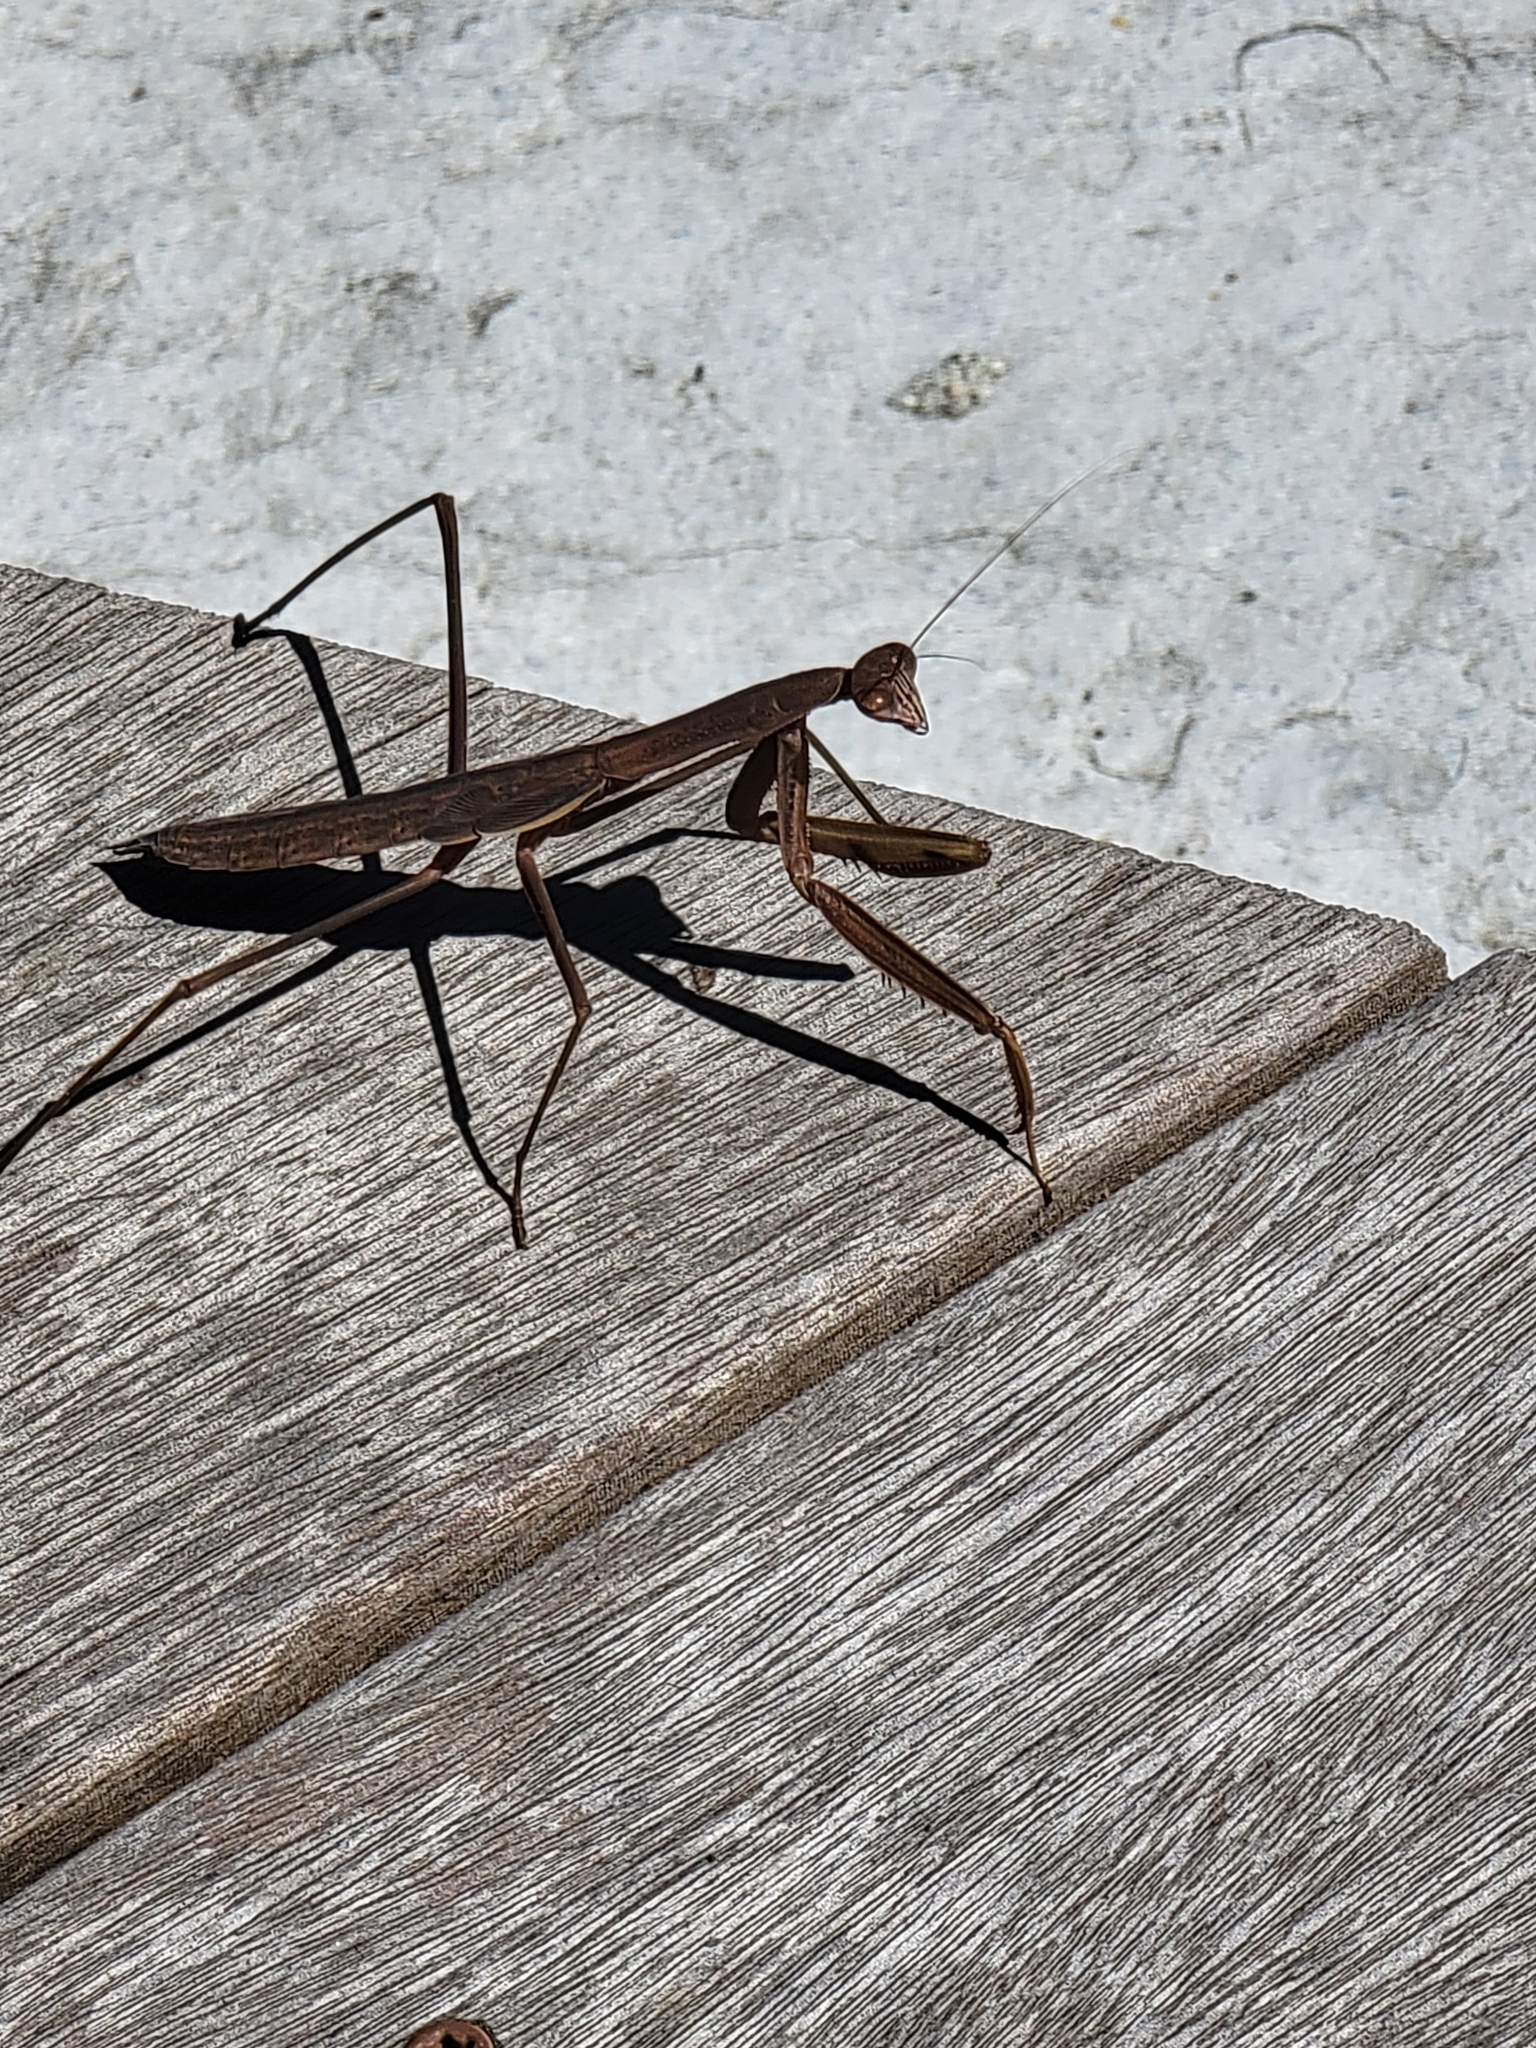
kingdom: Animalia
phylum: Arthropoda
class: Insecta
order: Mantodea
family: Mantidae
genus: Tenodera
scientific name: Tenodera sinensis
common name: Chinese mantis
